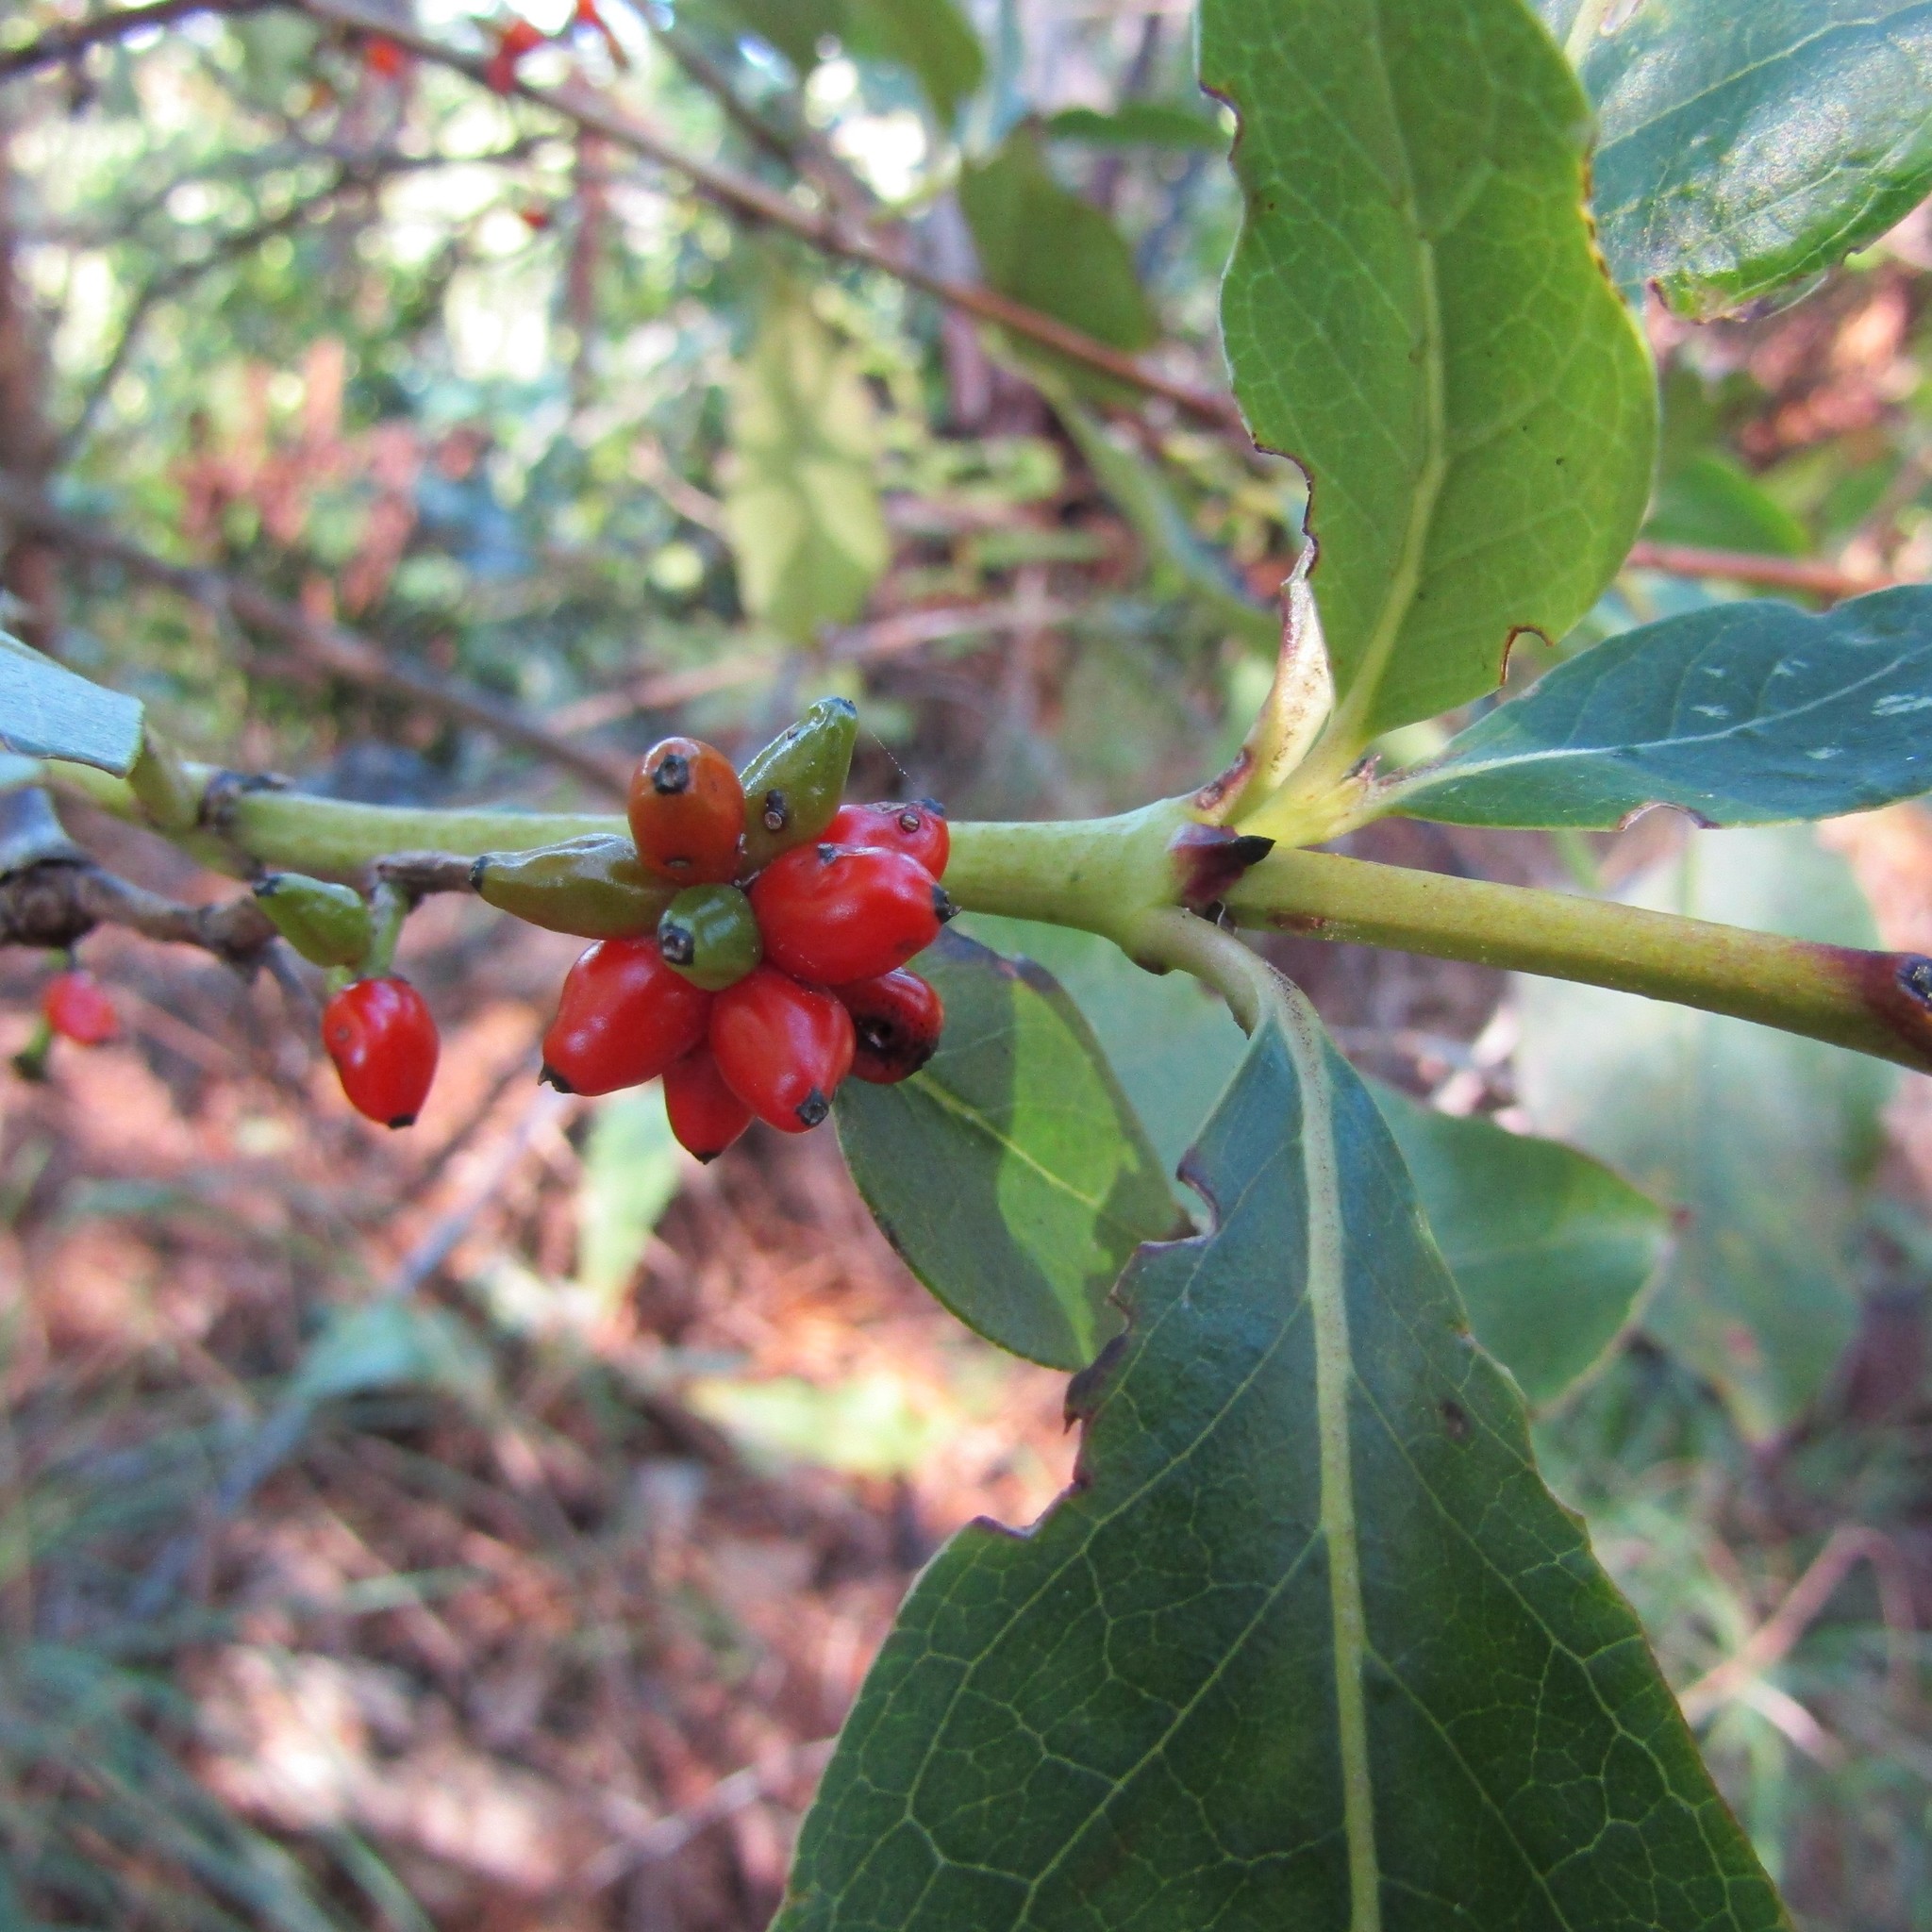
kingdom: Plantae
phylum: Tracheophyta
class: Magnoliopsida
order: Gentianales
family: Rubiaceae
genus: Coprosma
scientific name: Coprosma robusta
